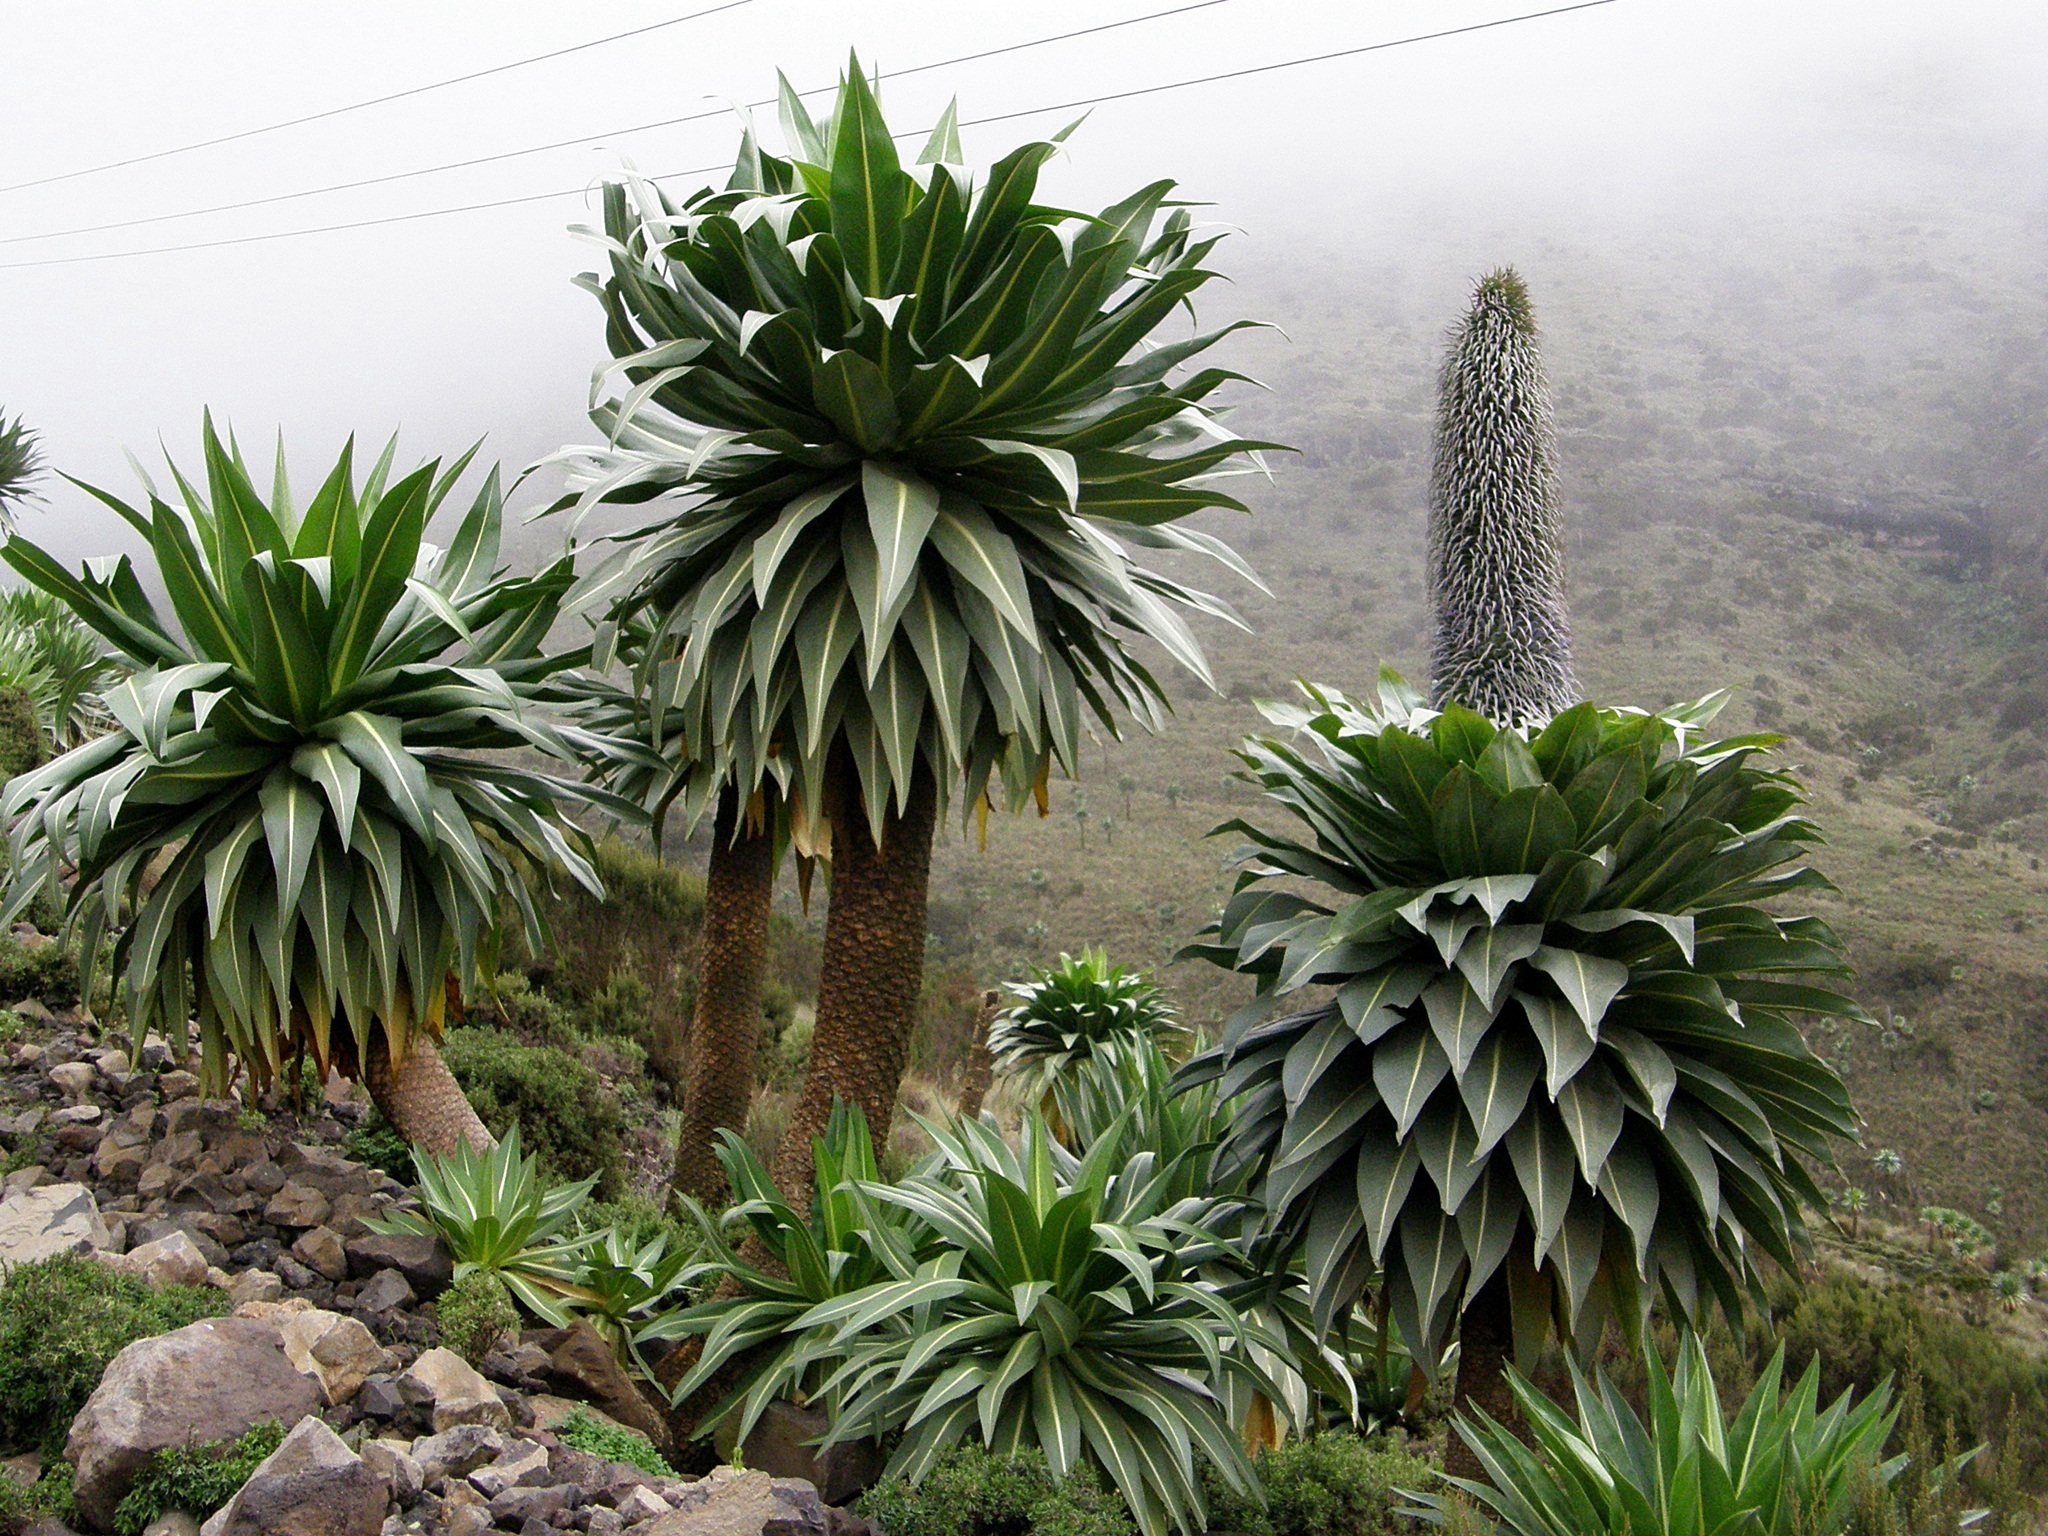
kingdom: Plantae
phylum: Tracheophyta
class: Magnoliopsida
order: Asterales
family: Campanulaceae
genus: Lobelia
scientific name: Lobelia rhynchopetalum
